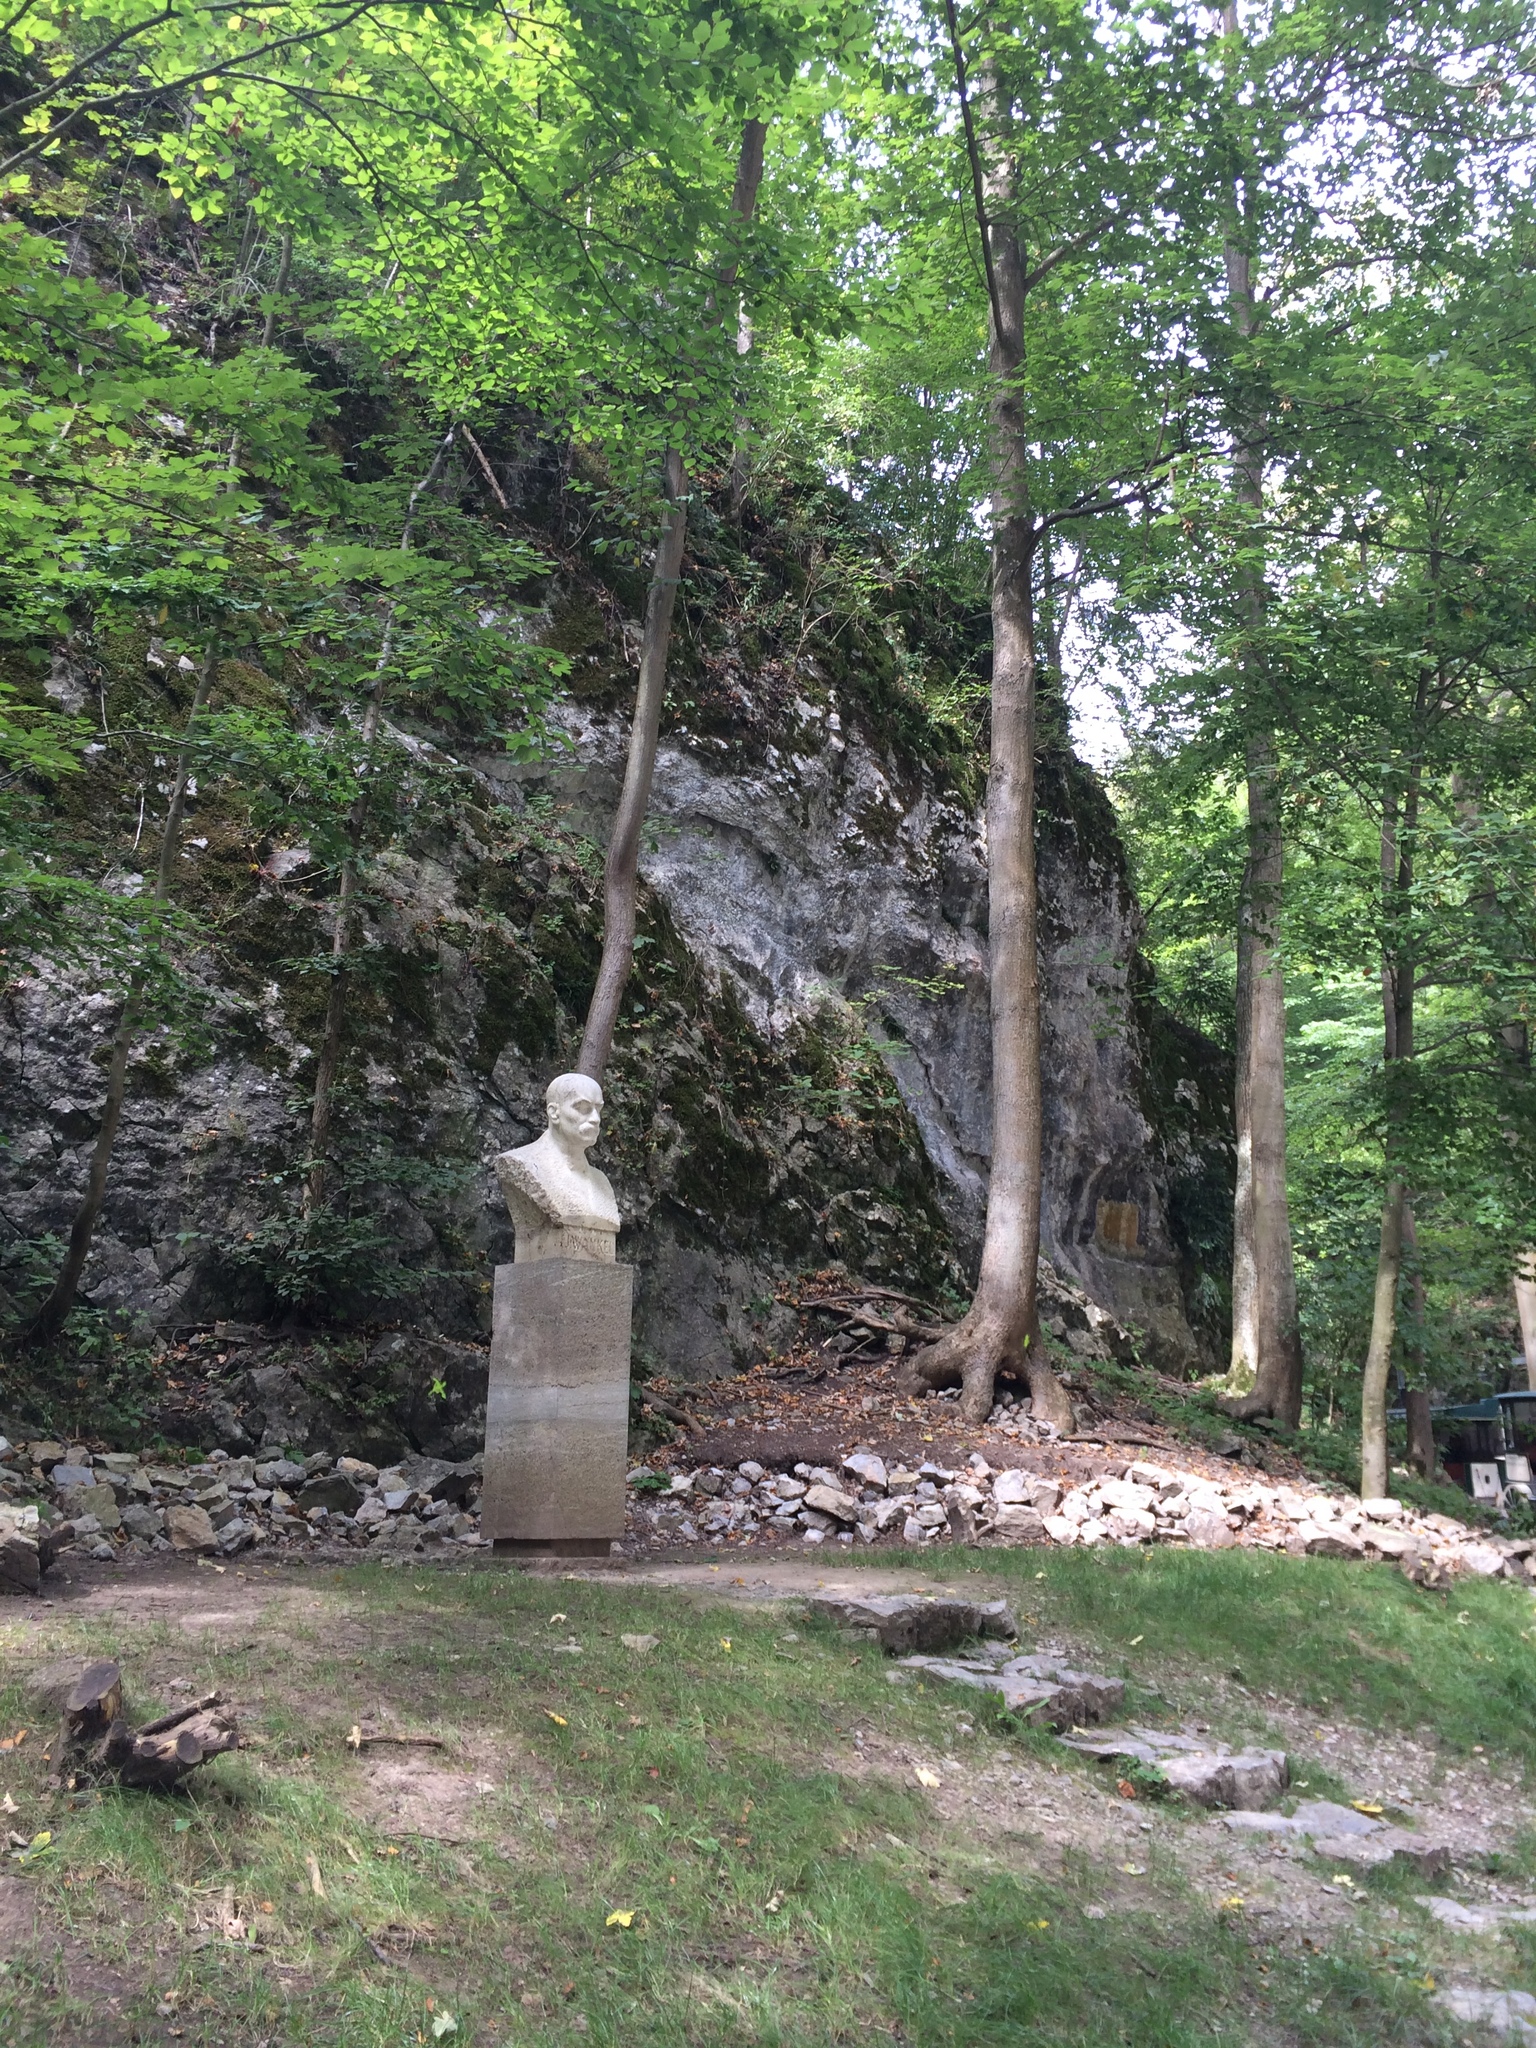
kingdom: Plantae
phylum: Tracheophyta
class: Magnoliopsida
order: Fagales
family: Fagaceae
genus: Fagus
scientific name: Fagus sylvatica
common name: Beech
